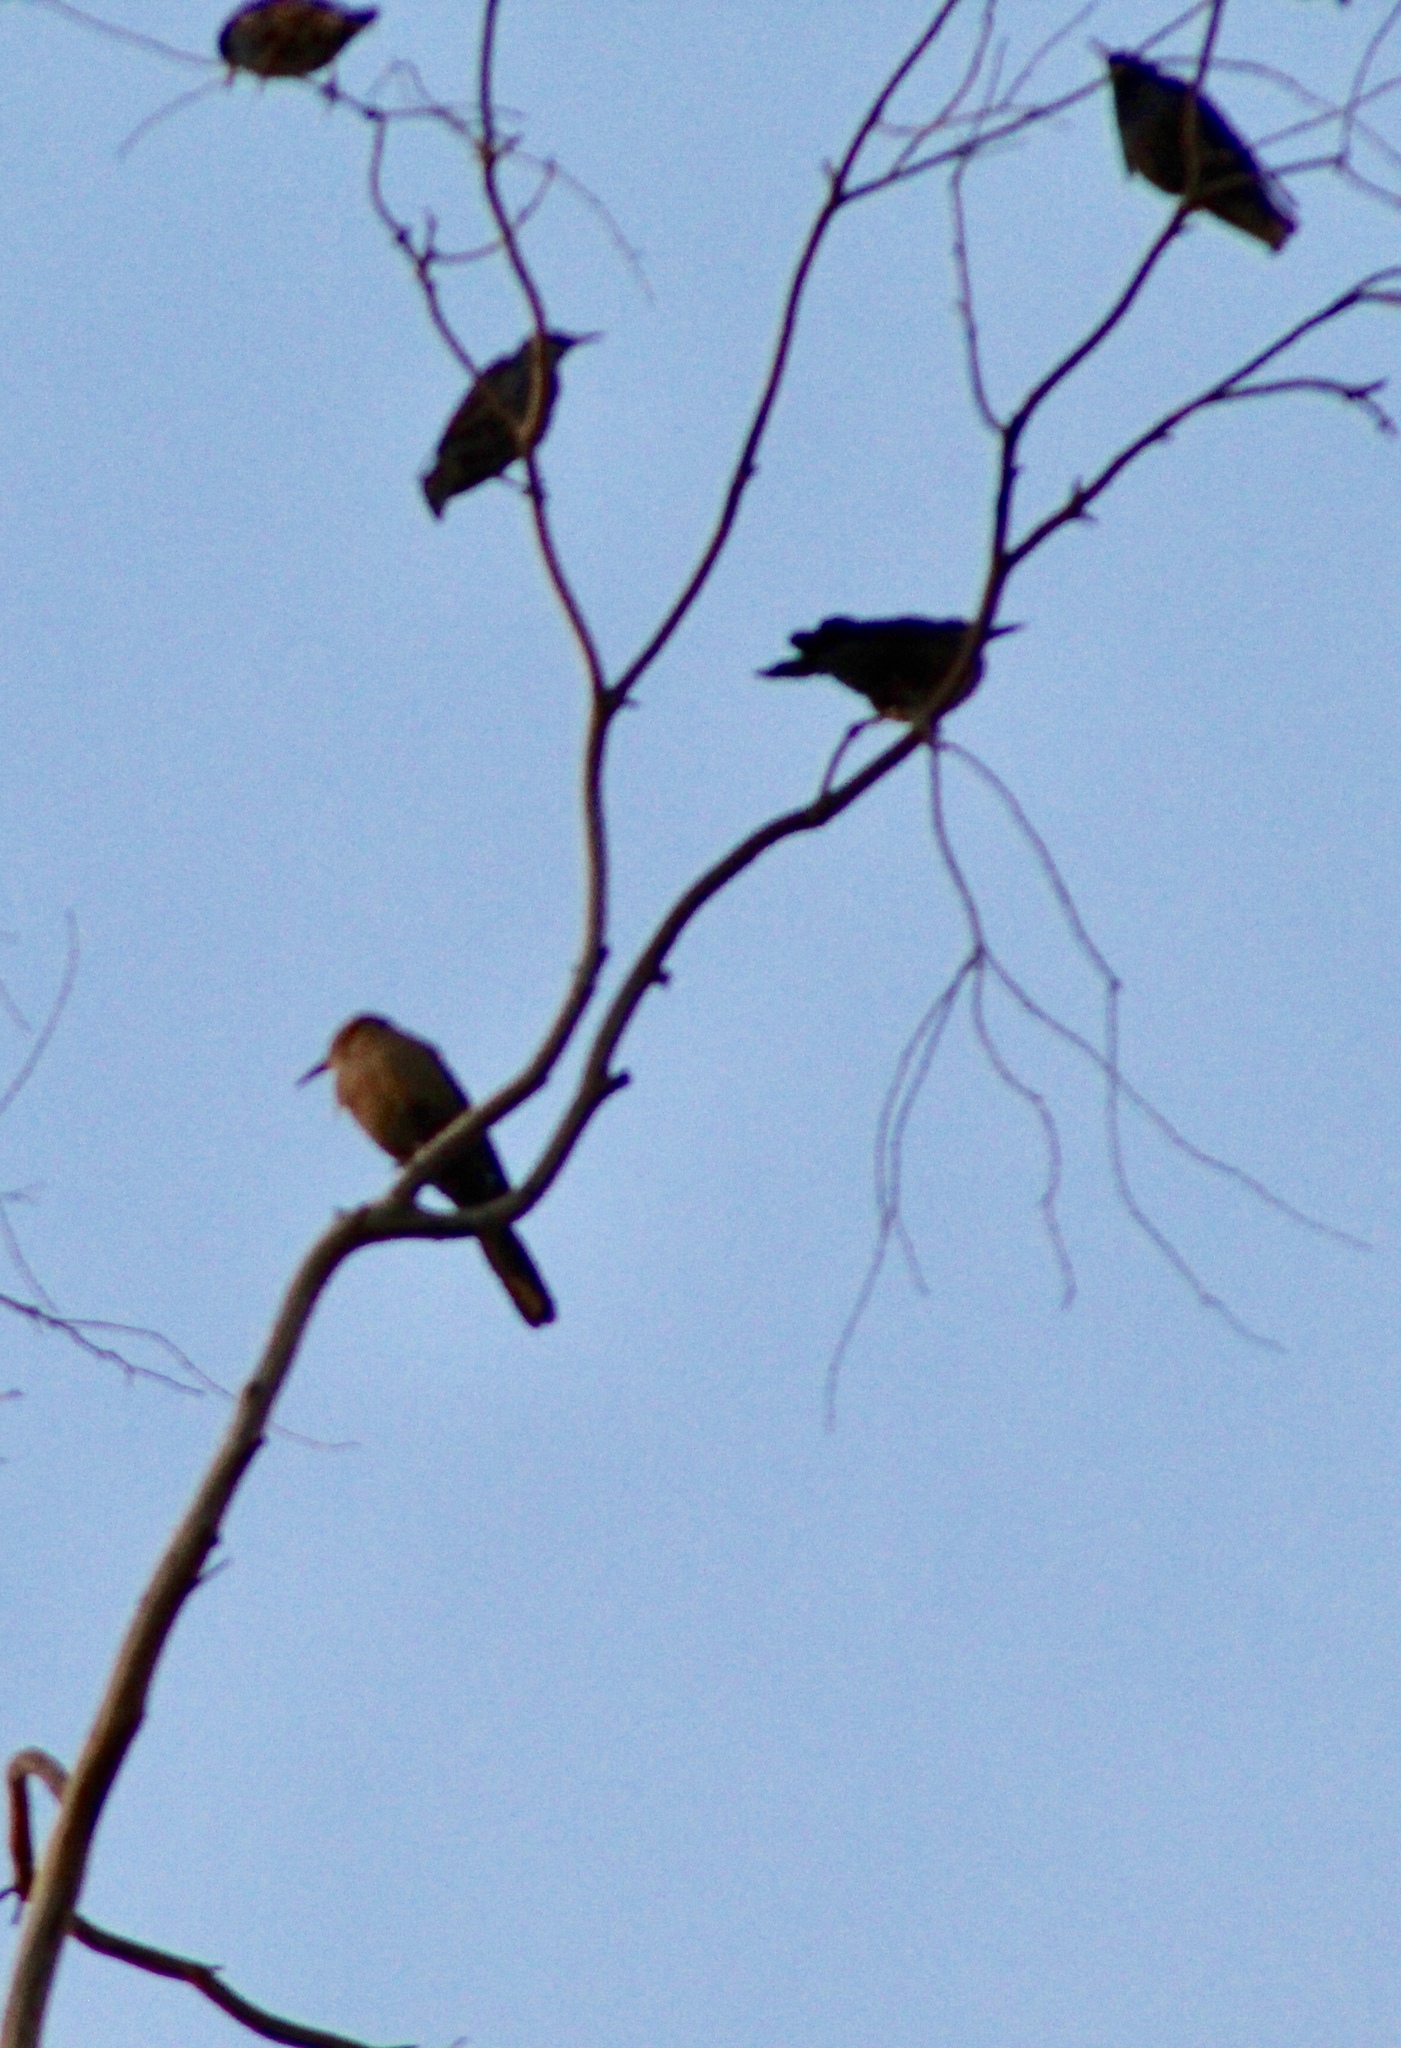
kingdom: Animalia
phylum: Chordata
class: Aves
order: Passeriformes
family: Icteridae
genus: Quiscalus
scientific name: Quiscalus mexicanus
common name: Great-tailed grackle
